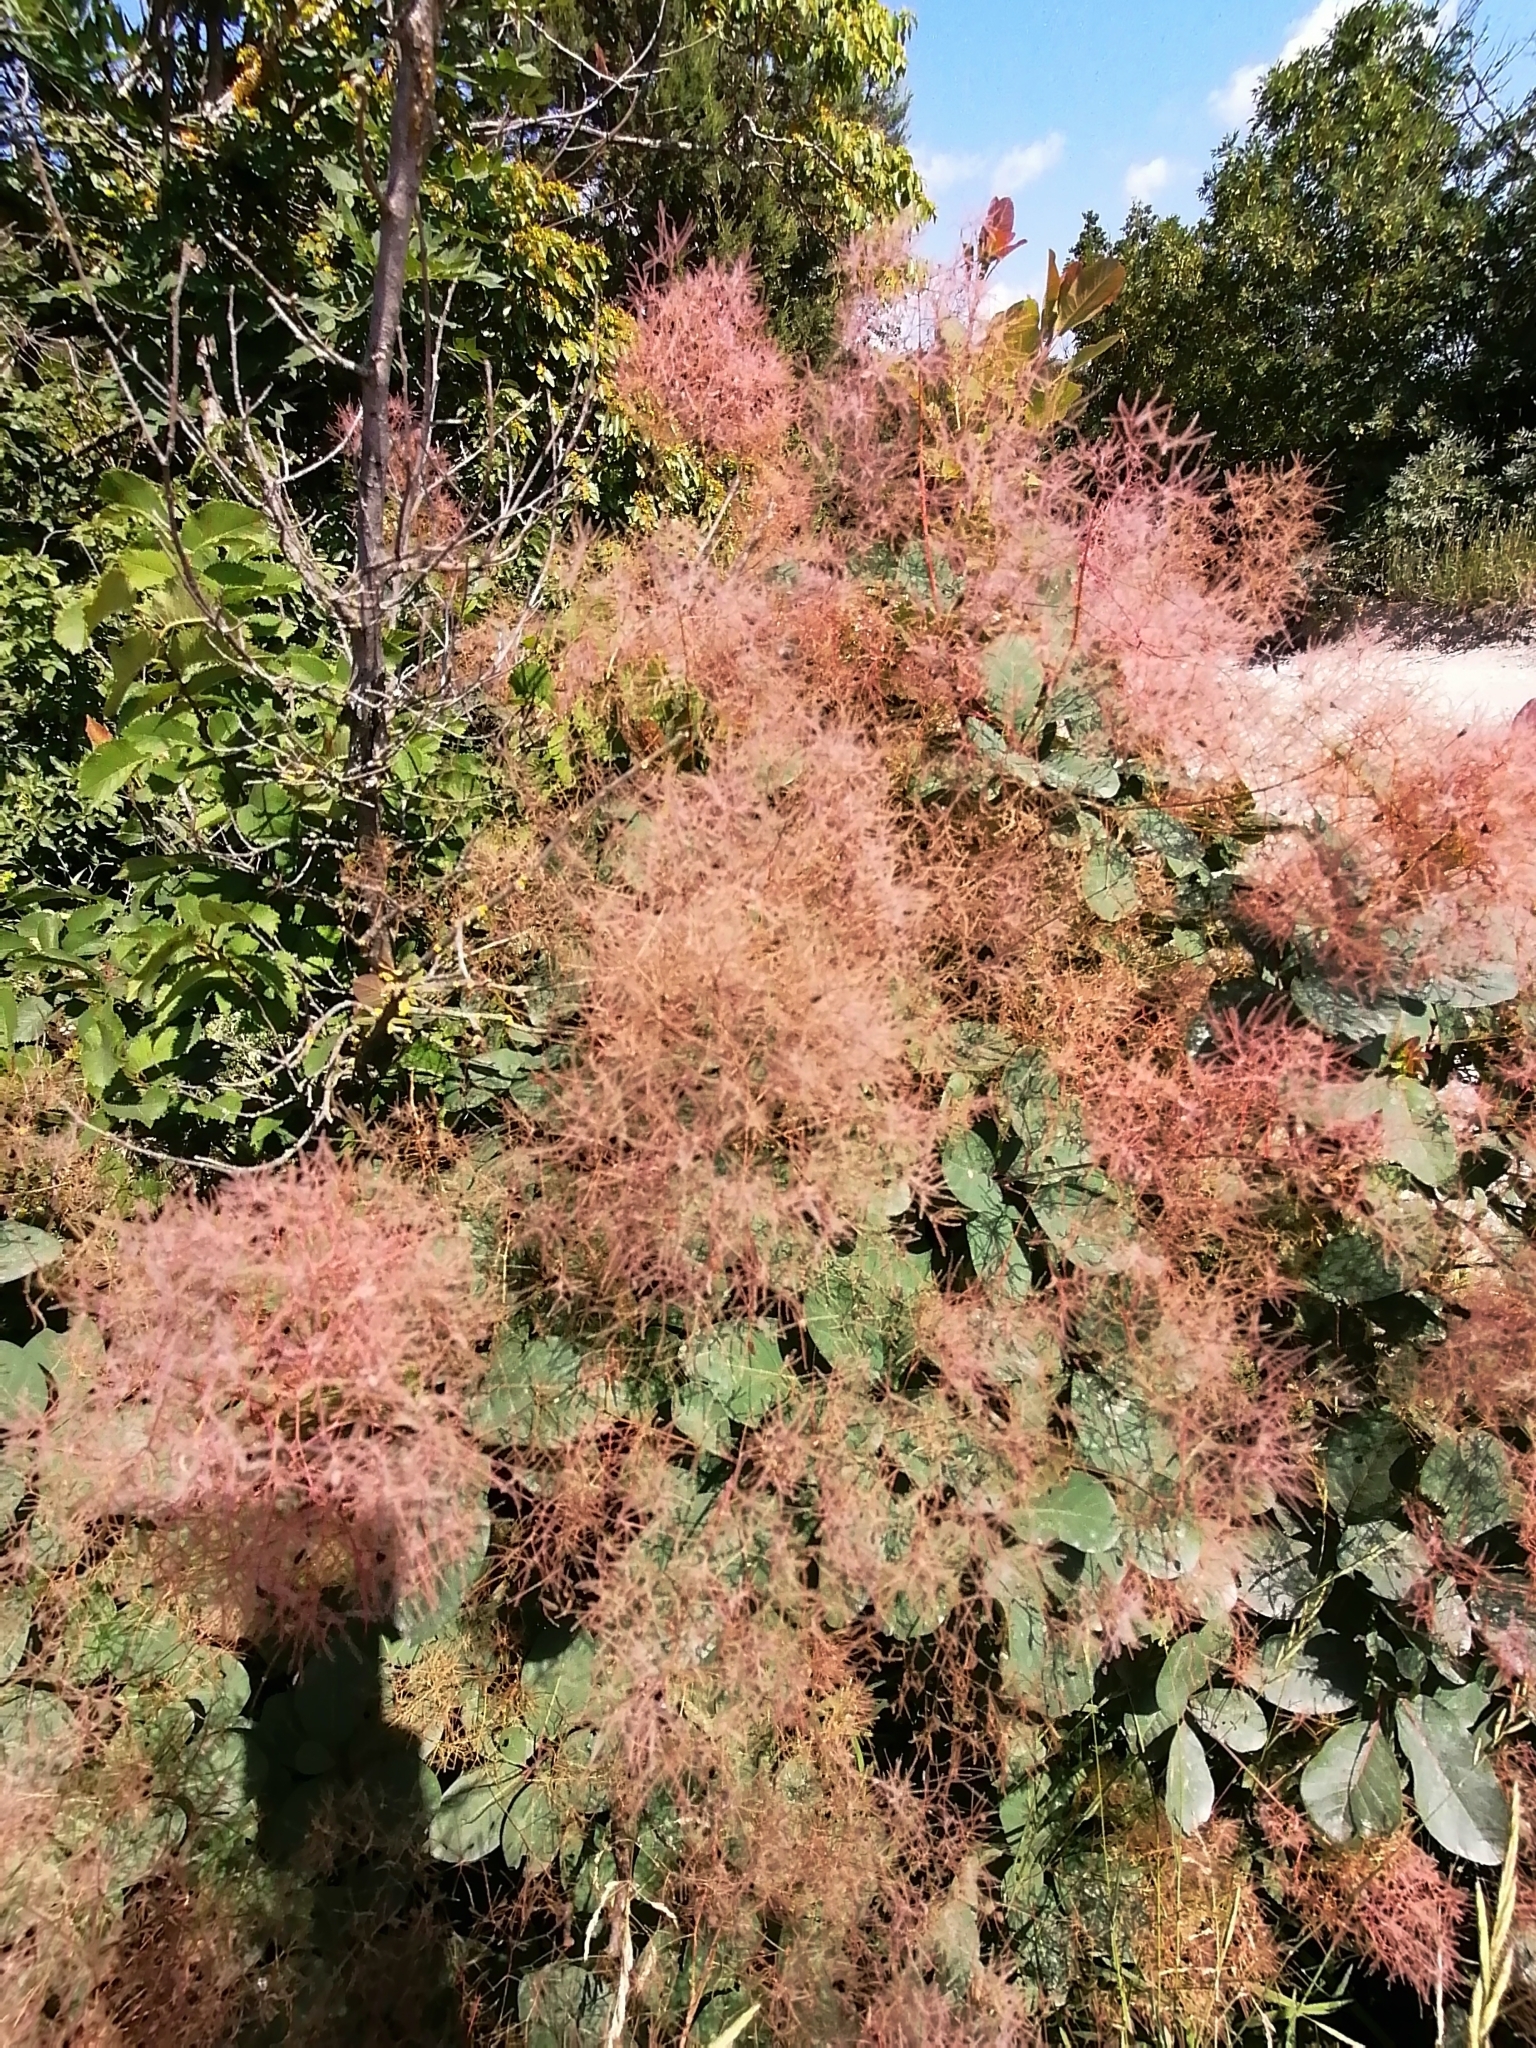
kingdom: Plantae
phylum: Tracheophyta
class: Magnoliopsida
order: Sapindales
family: Anacardiaceae
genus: Cotinus
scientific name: Cotinus coggygria
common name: Smoke-tree
